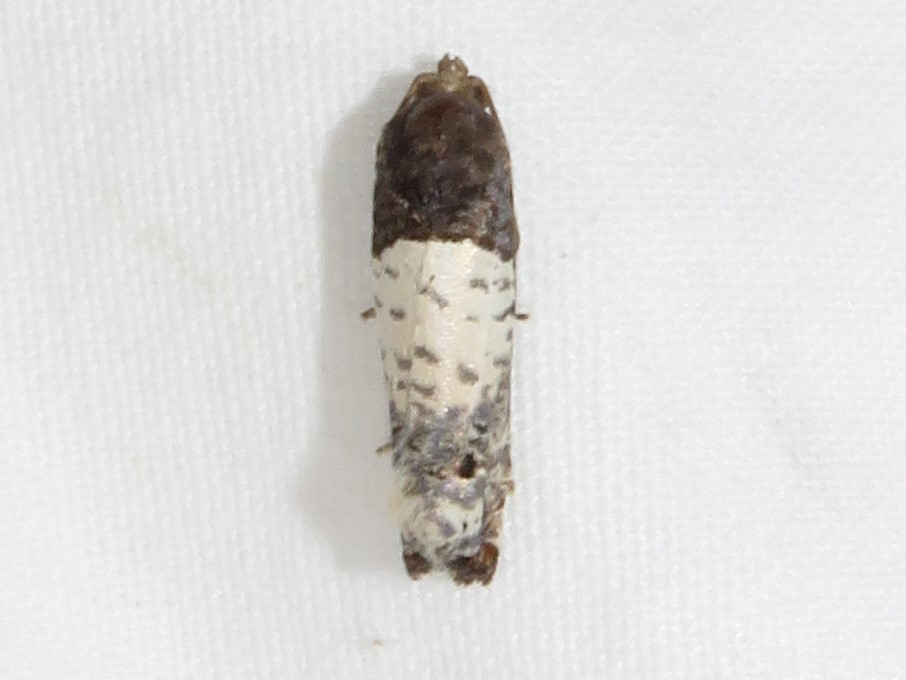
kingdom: Animalia
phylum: Arthropoda
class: Insecta
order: Lepidoptera
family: Tortricidae
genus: Epiblema
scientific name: Epiblema scudderiana
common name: Goldenrod gall moth
